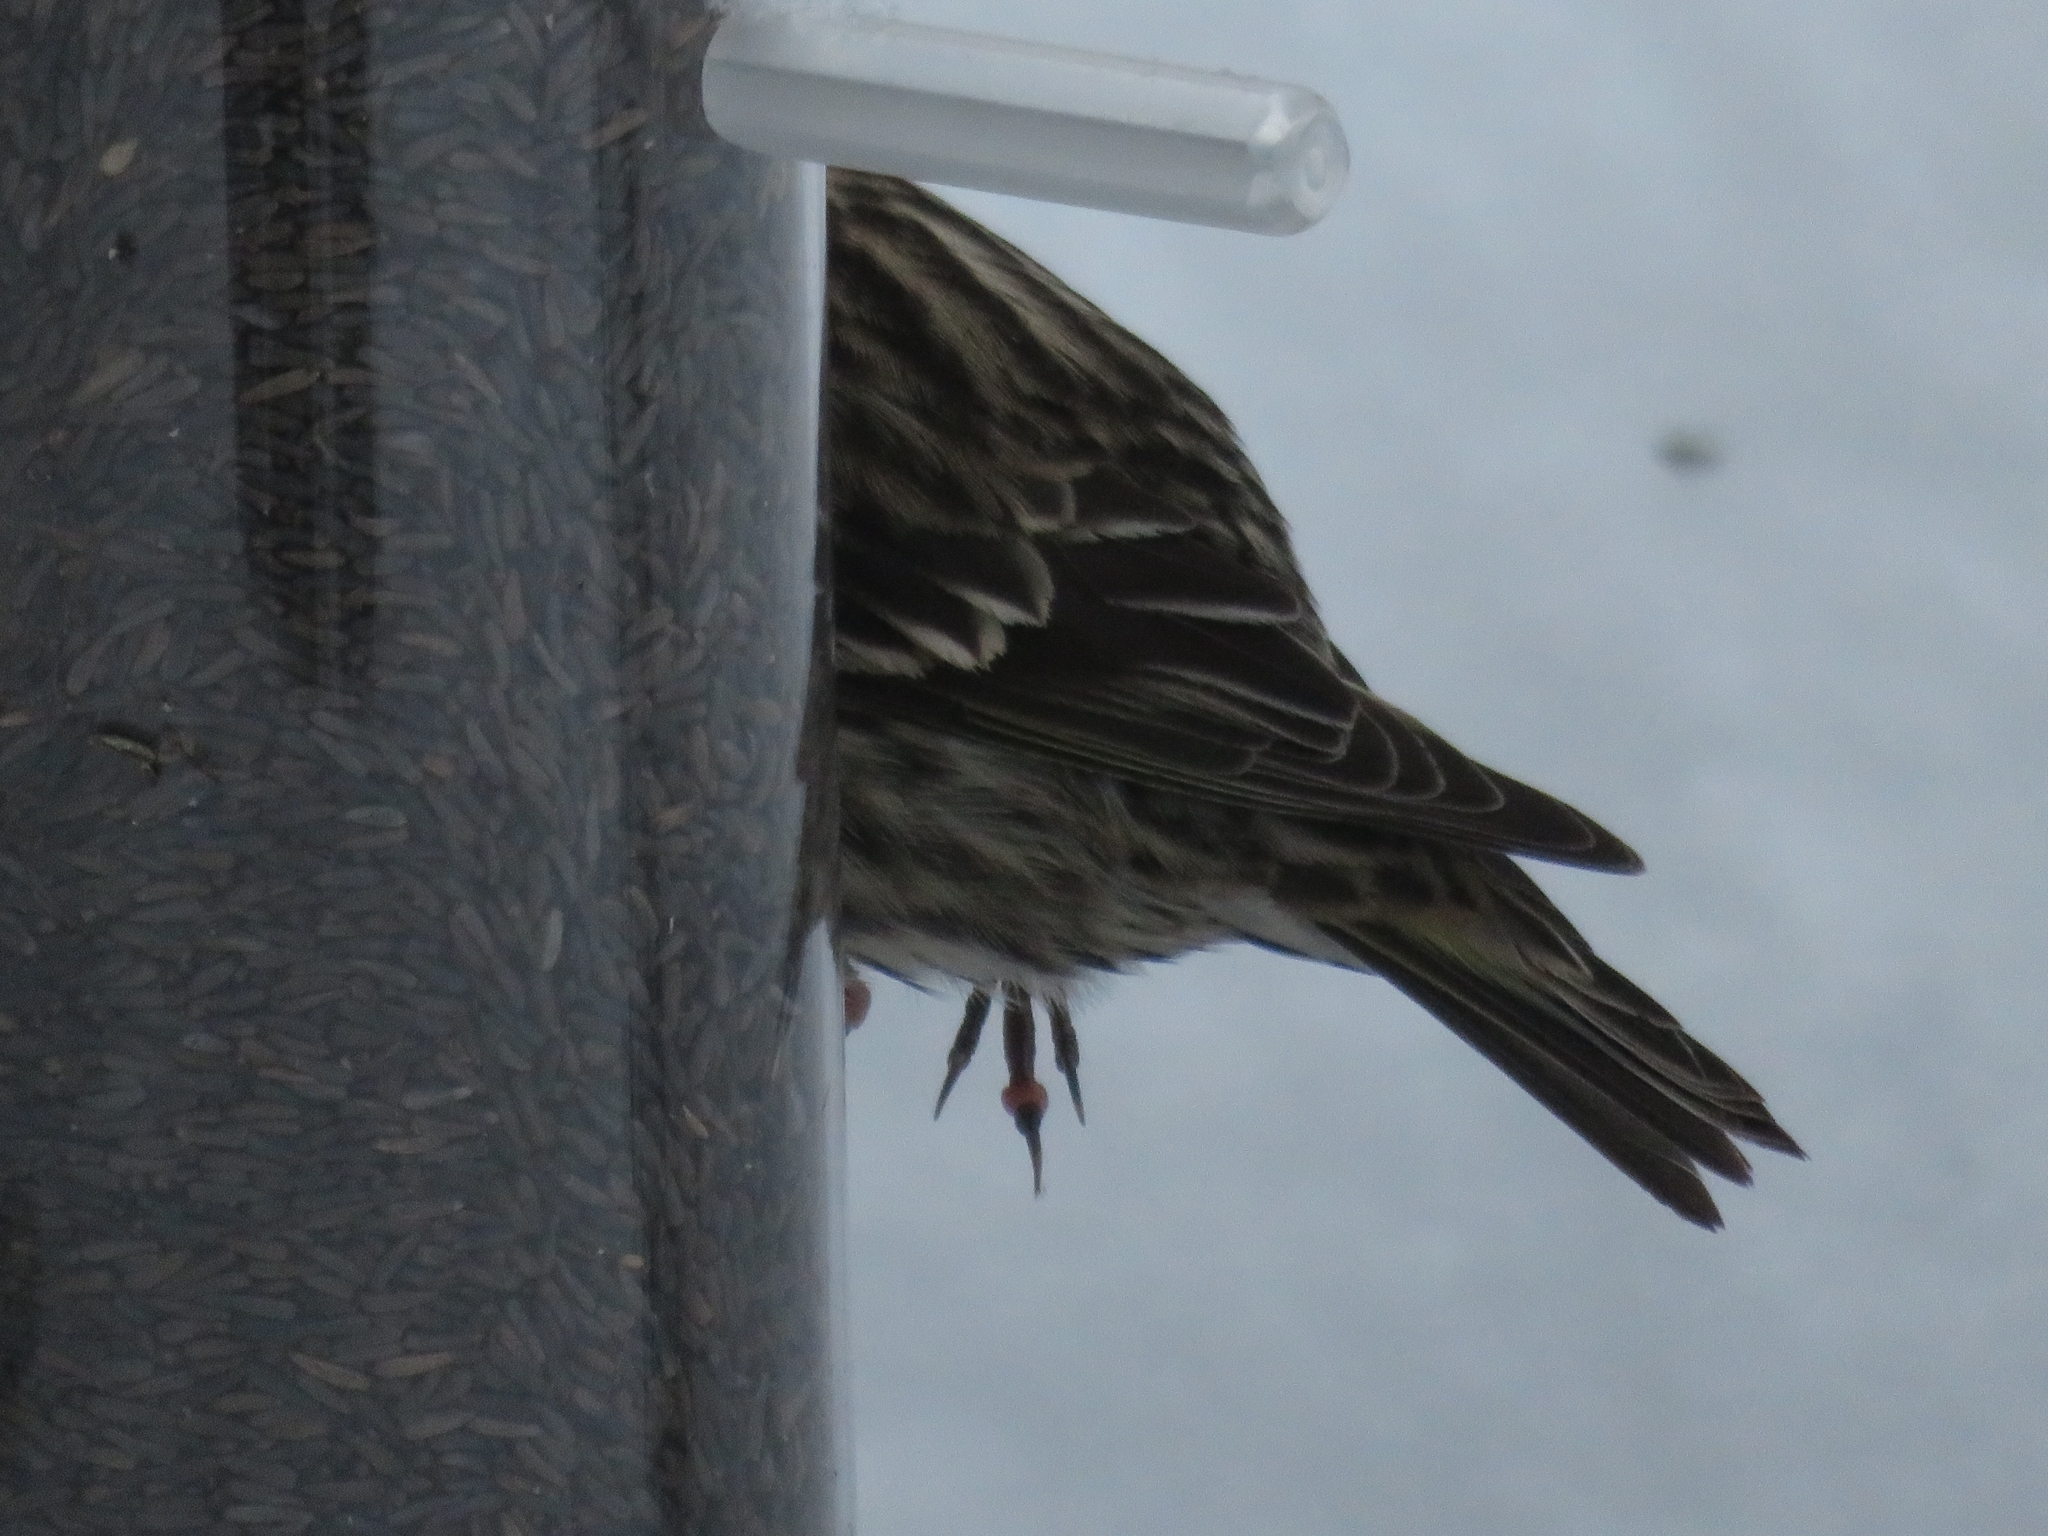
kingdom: Animalia
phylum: Chordata
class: Aves
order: Passeriformes
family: Fringillidae
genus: Spinus
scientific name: Spinus pinus
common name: Pine siskin
